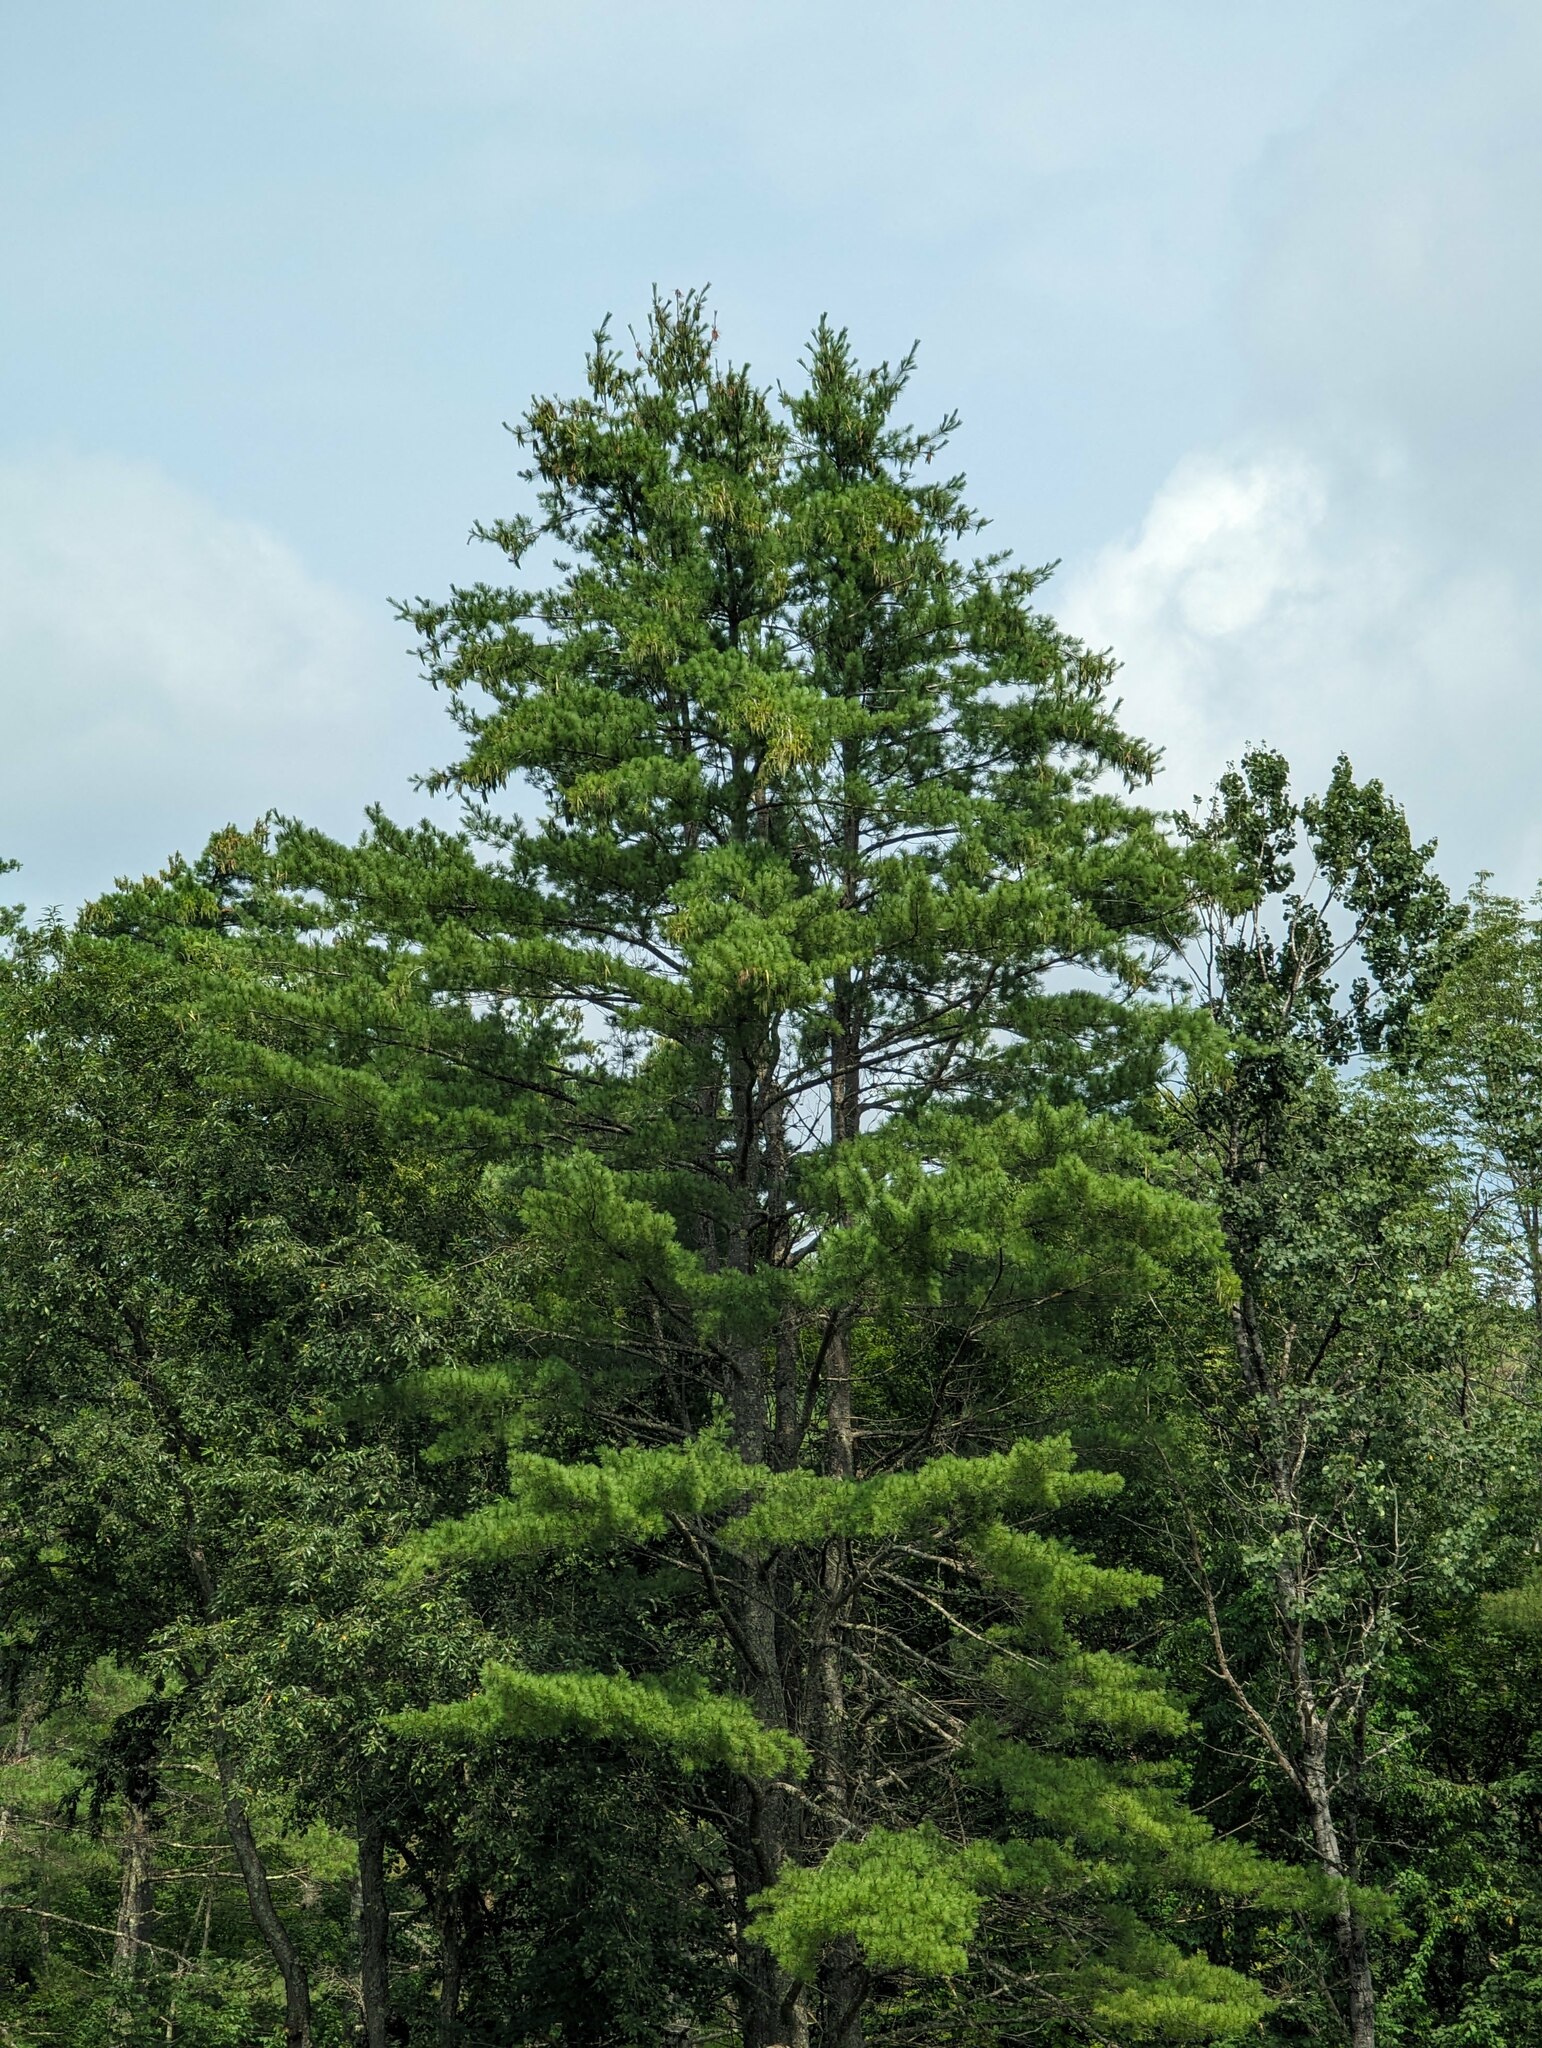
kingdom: Plantae
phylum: Tracheophyta
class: Pinopsida
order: Pinales
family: Pinaceae
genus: Pinus
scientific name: Pinus strobus
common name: Weymouth pine
